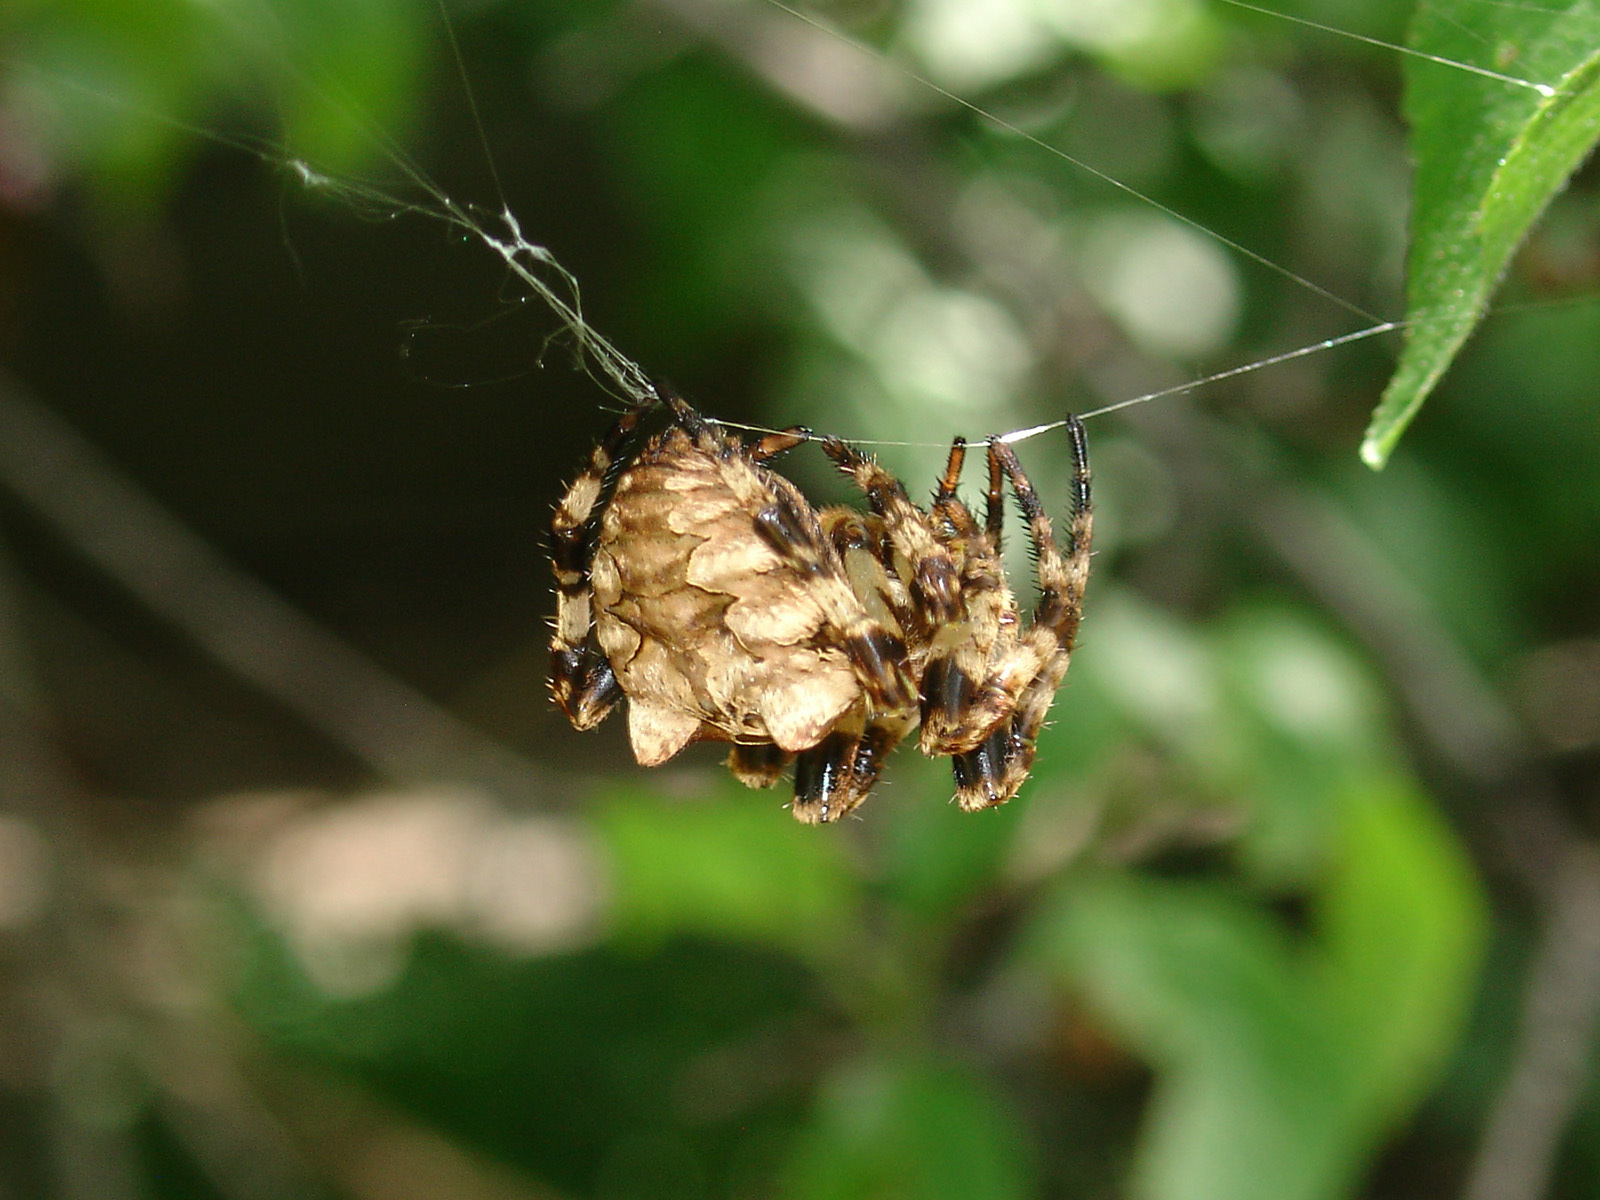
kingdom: Animalia
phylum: Arthropoda
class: Arachnida
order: Araneae
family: Araneidae
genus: Araneus
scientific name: Araneus grossus
